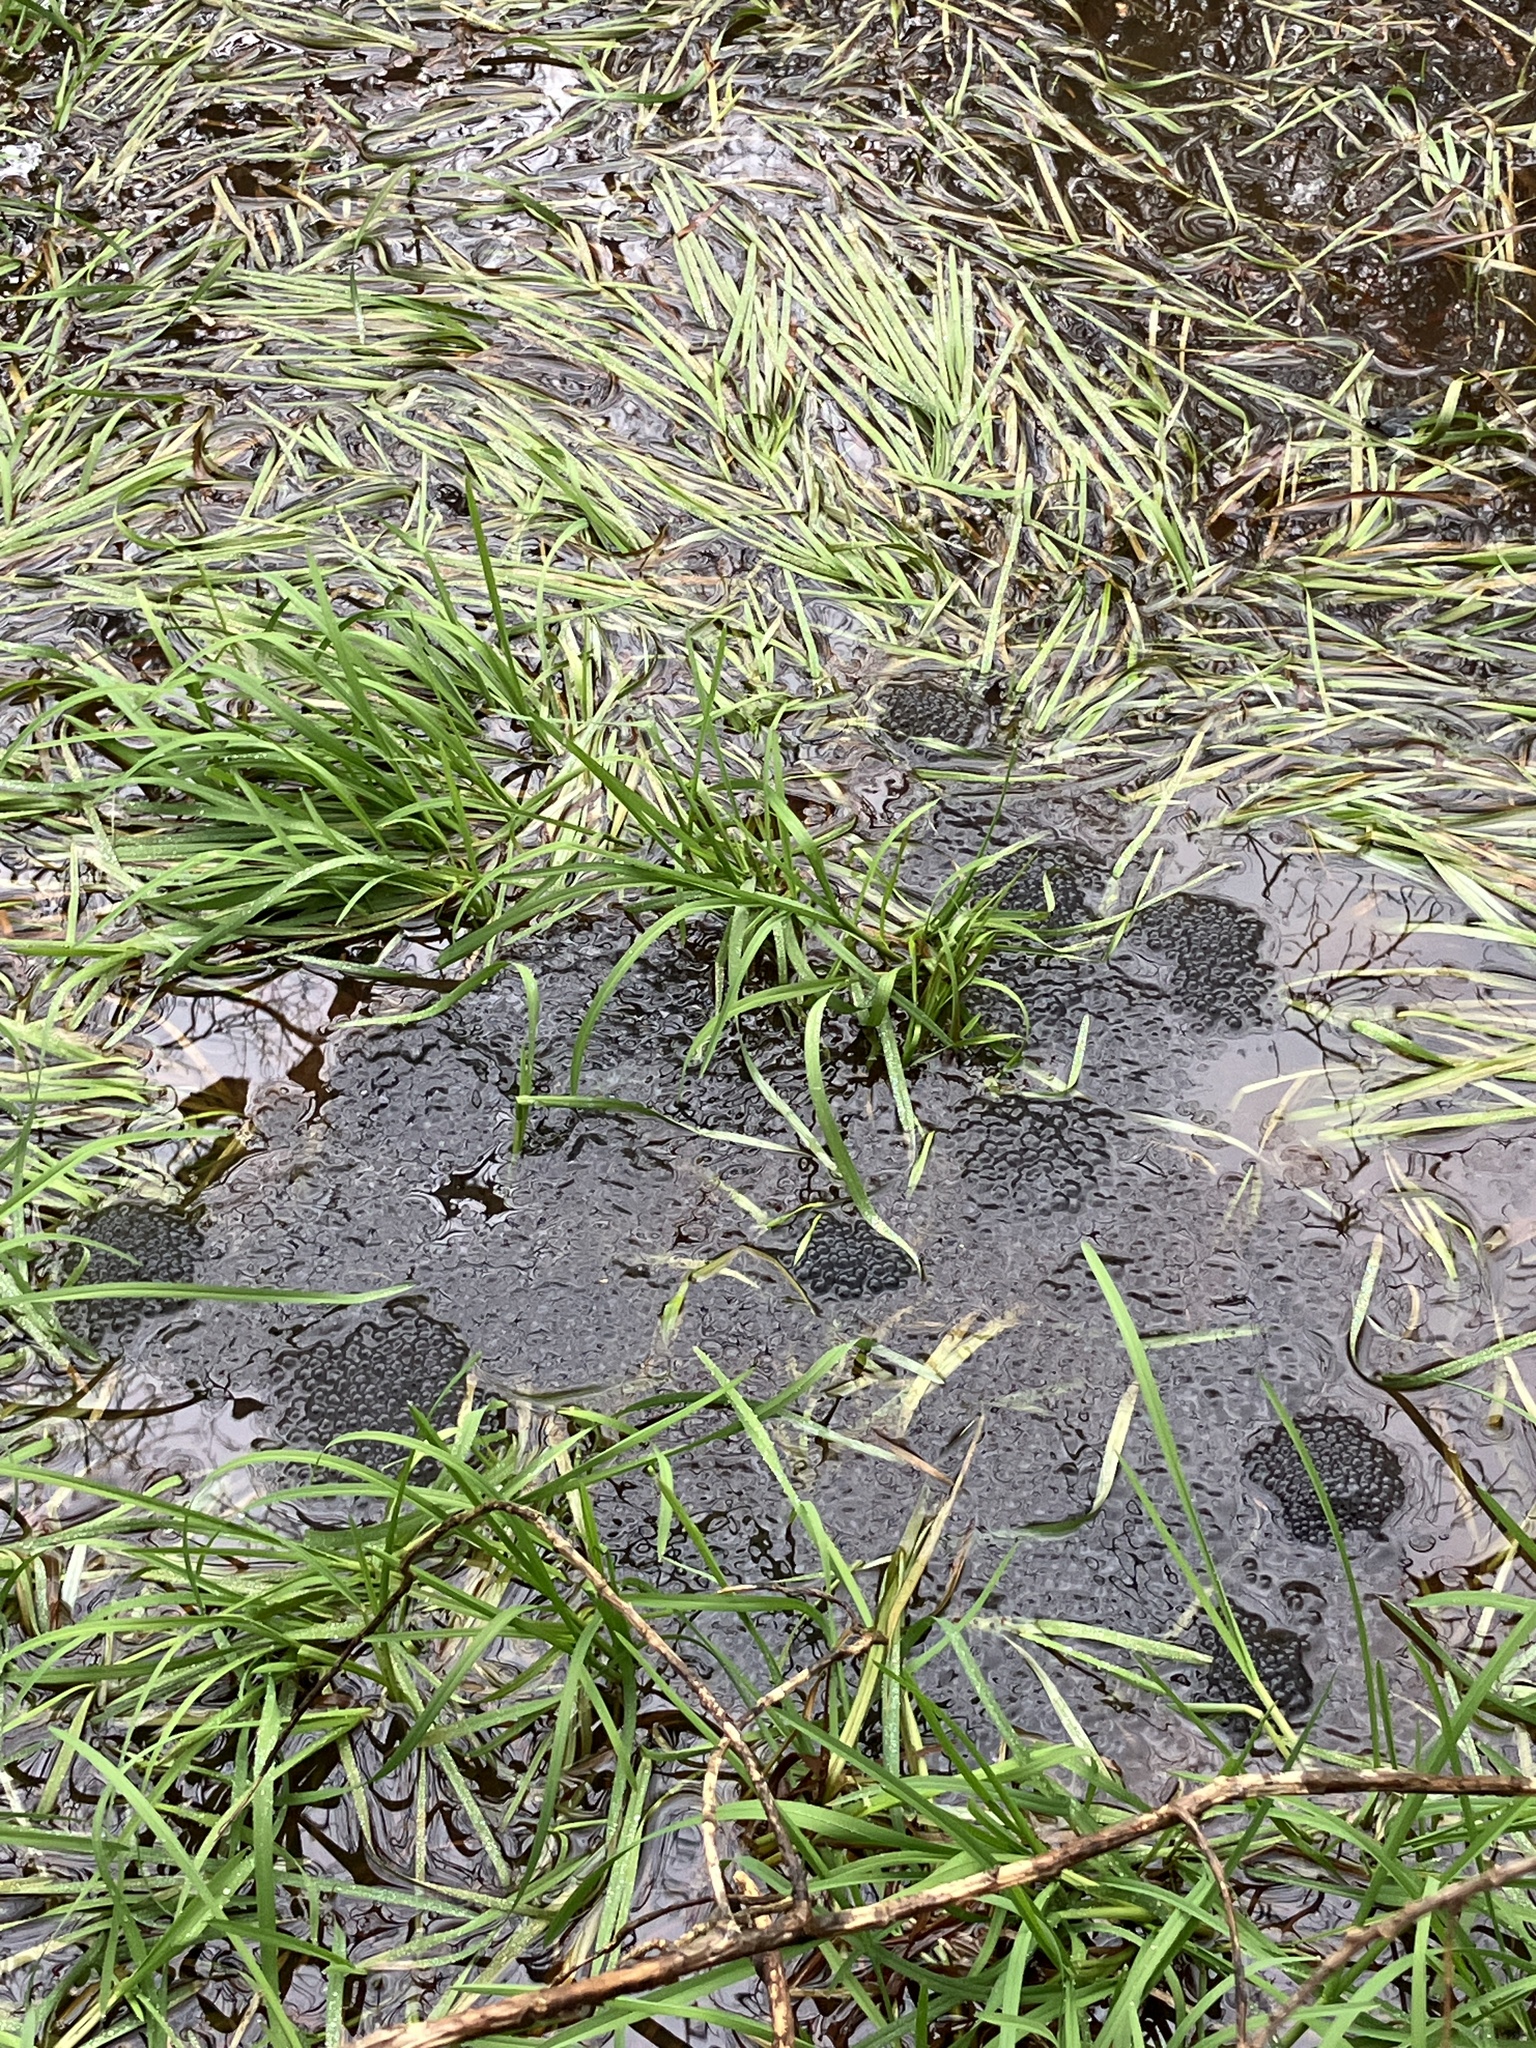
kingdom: Animalia
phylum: Chordata
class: Amphibia
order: Anura
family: Ranidae
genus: Rana
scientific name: Rana temporaria
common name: Common frog
